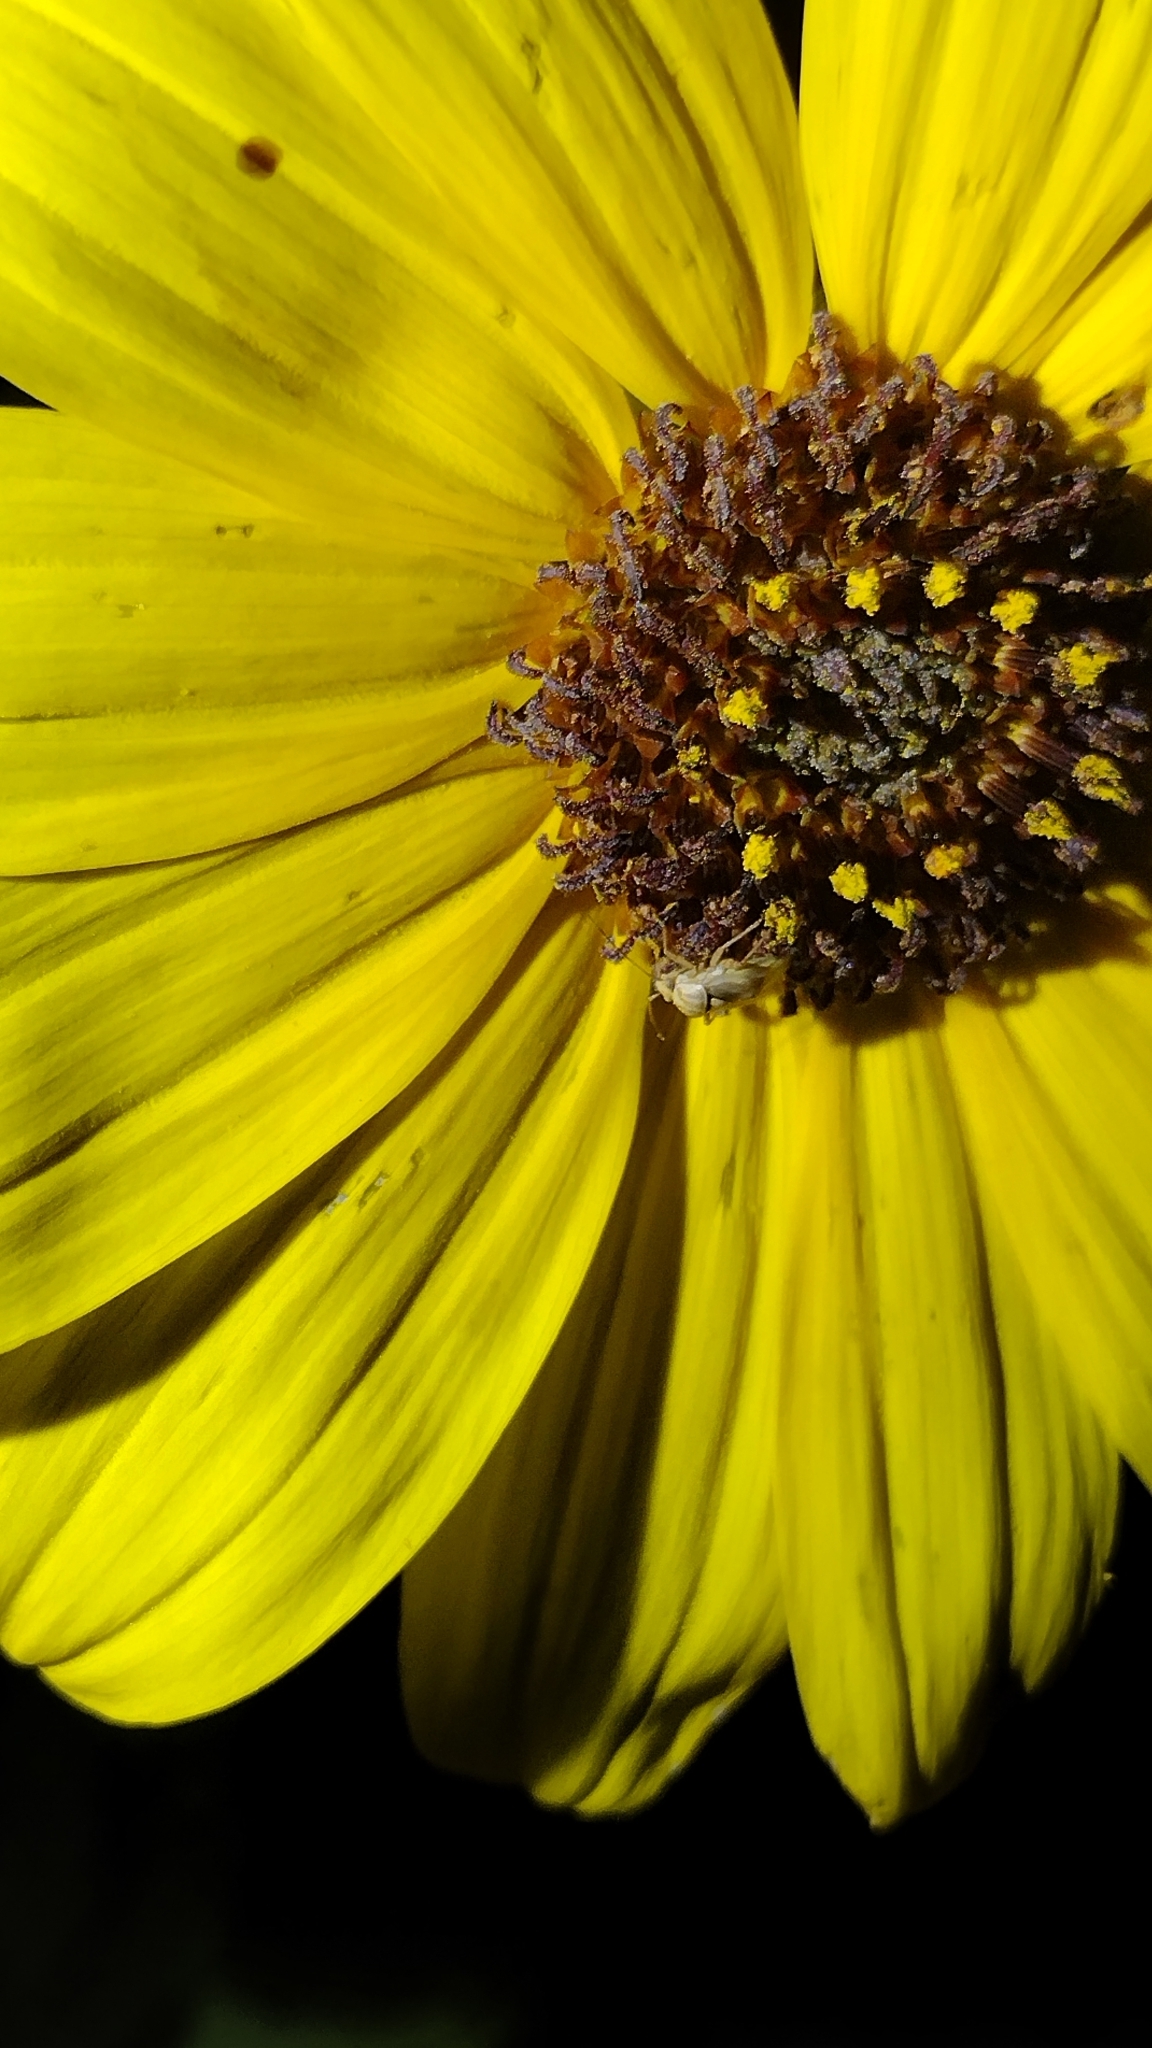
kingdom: Plantae
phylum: Tracheophyta
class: Magnoliopsida
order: Asterales
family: Asteraceae
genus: Encelia
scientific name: Encelia californica
